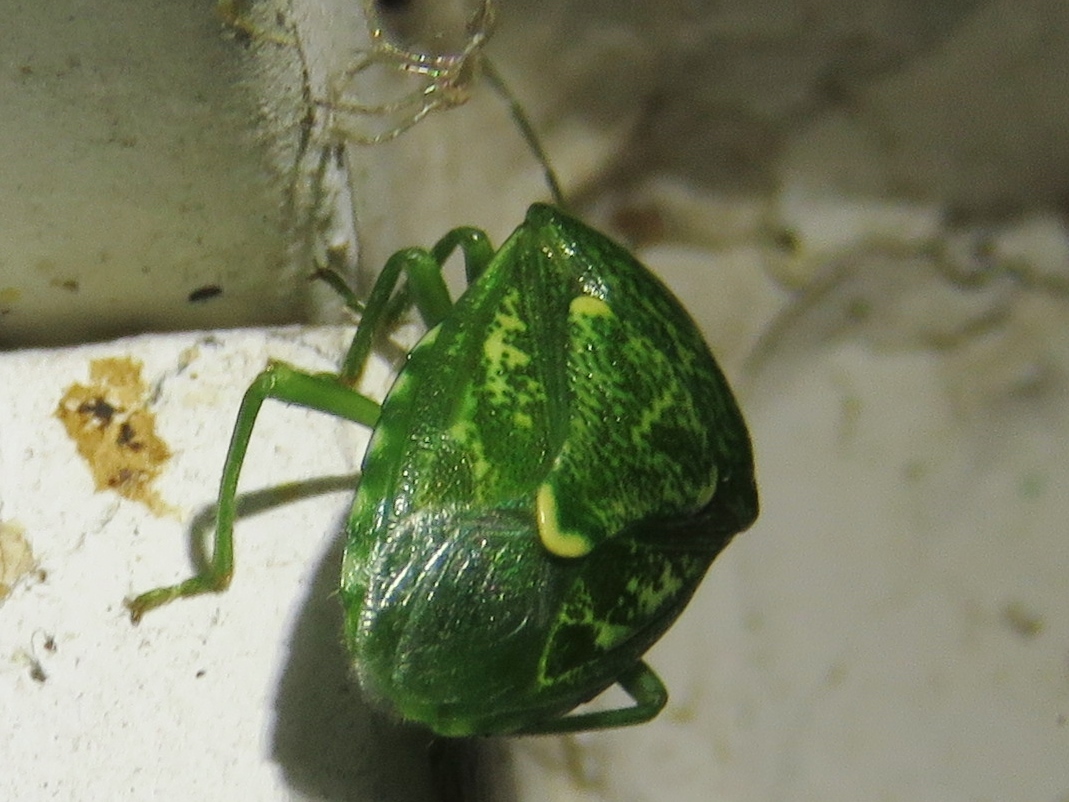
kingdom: Animalia
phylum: Arthropoda
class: Insecta
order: Hemiptera
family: Pentatomidae
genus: Banasa
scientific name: Banasa euchlora
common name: Cedar berry bug
